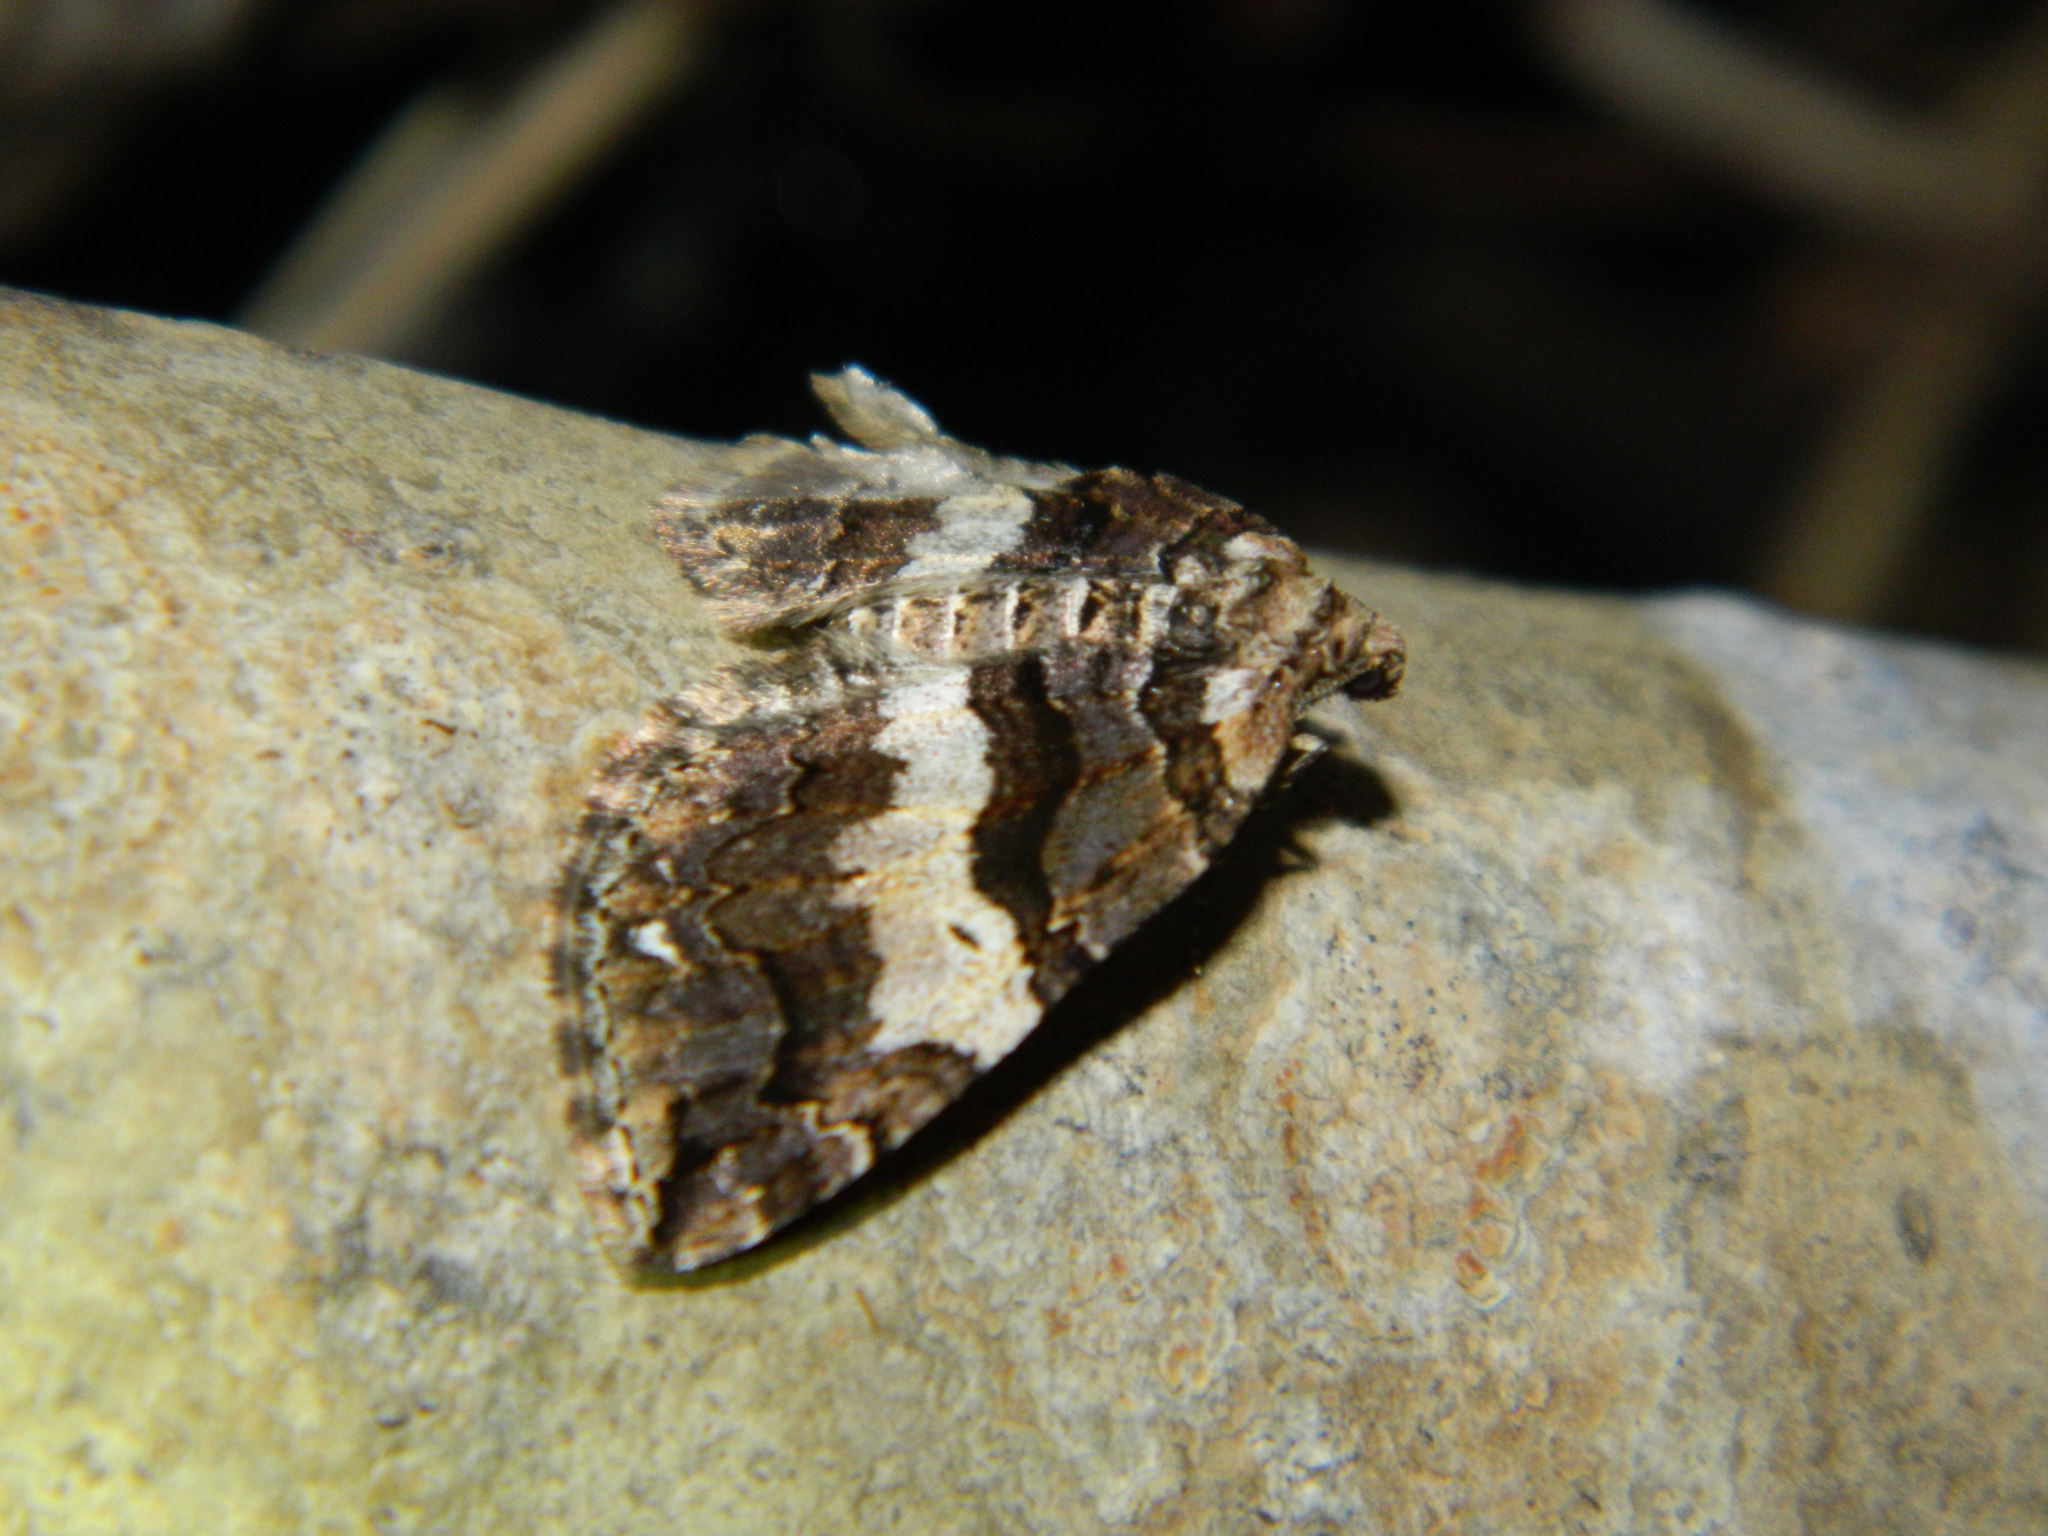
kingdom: Animalia
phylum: Arthropoda
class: Insecta
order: Lepidoptera
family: Geometridae
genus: Anticlea
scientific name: Anticlea vasiliata
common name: Variable carpet
